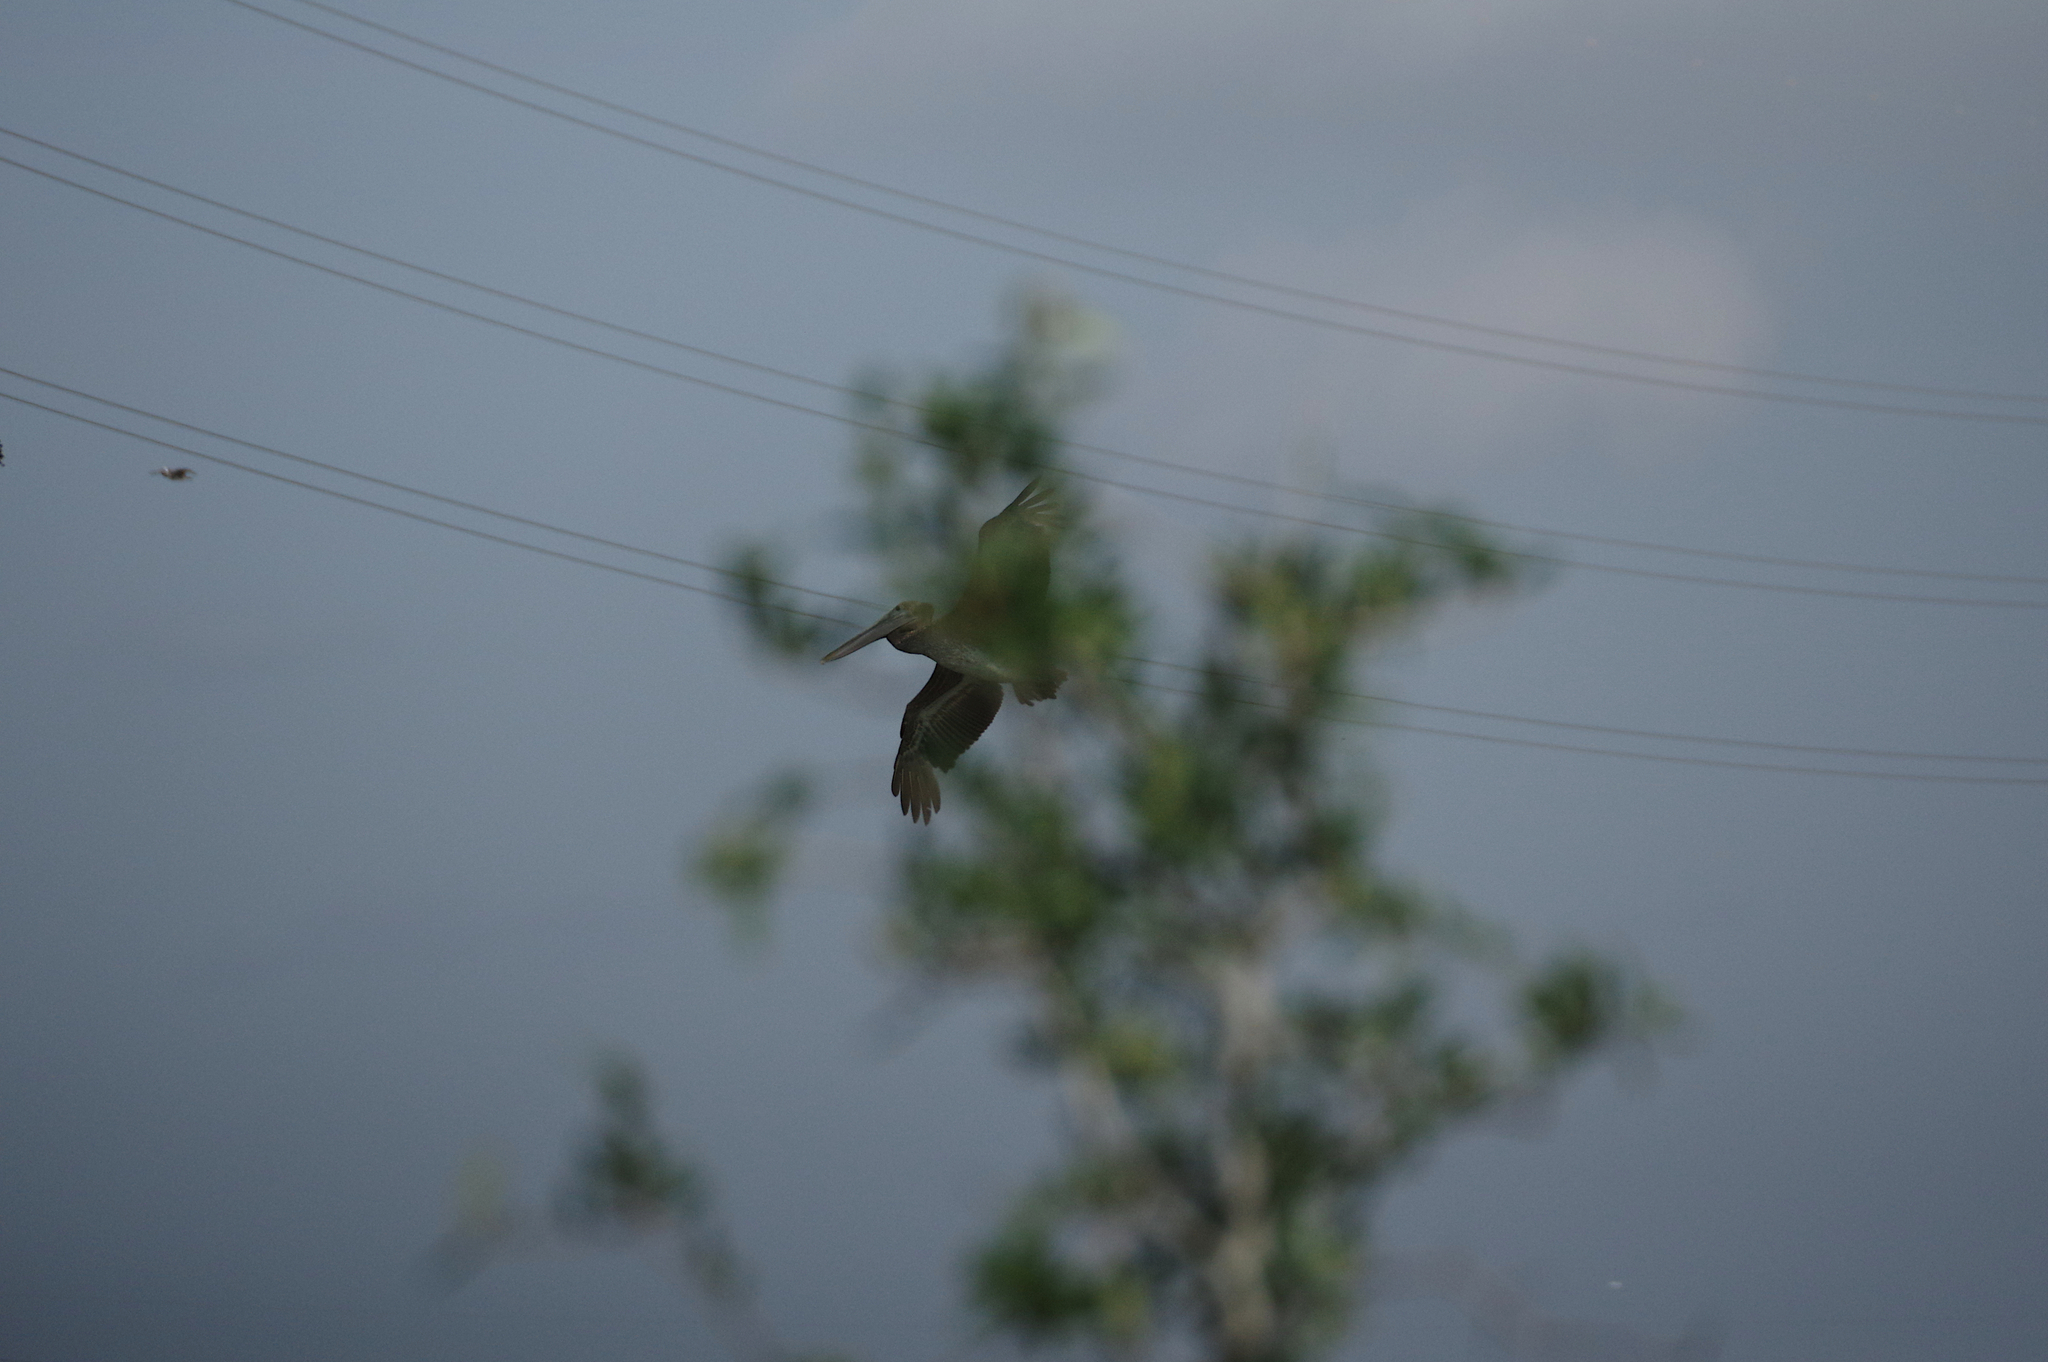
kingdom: Animalia
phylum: Chordata
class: Aves
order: Pelecaniformes
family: Pelecanidae
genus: Pelecanus
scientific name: Pelecanus occidentalis
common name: Brown pelican
